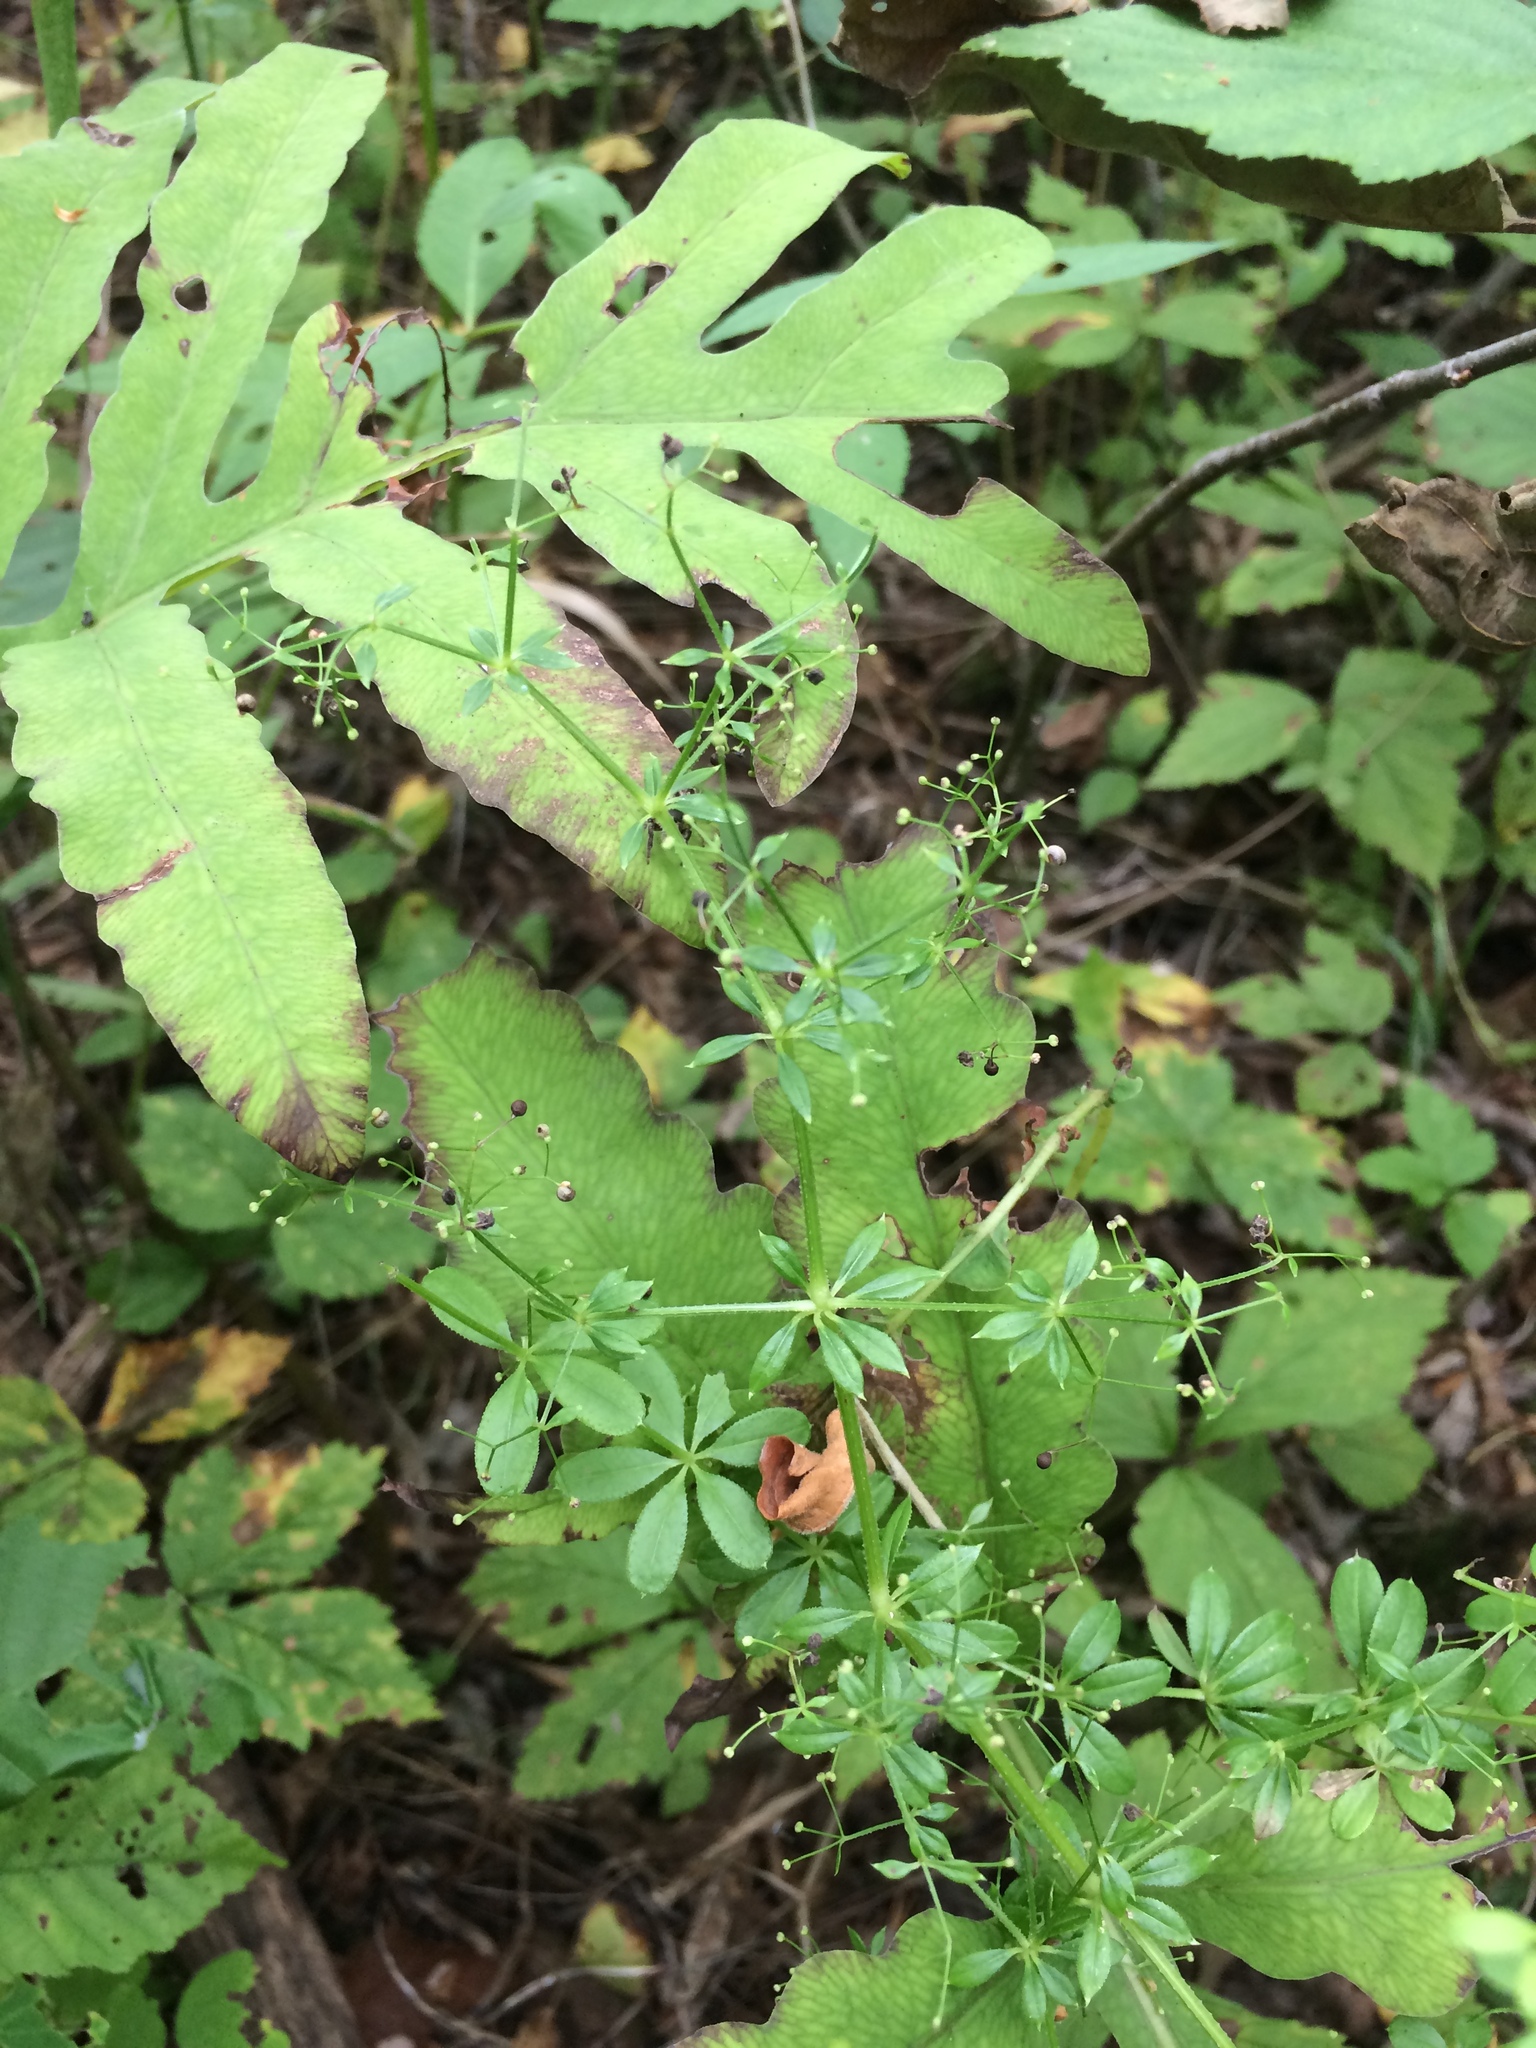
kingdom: Plantae
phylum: Tracheophyta
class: Magnoliopsida
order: Gentianales
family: Rubiaceae
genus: Galium
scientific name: Galium asprellum
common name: Rough bedstraw
